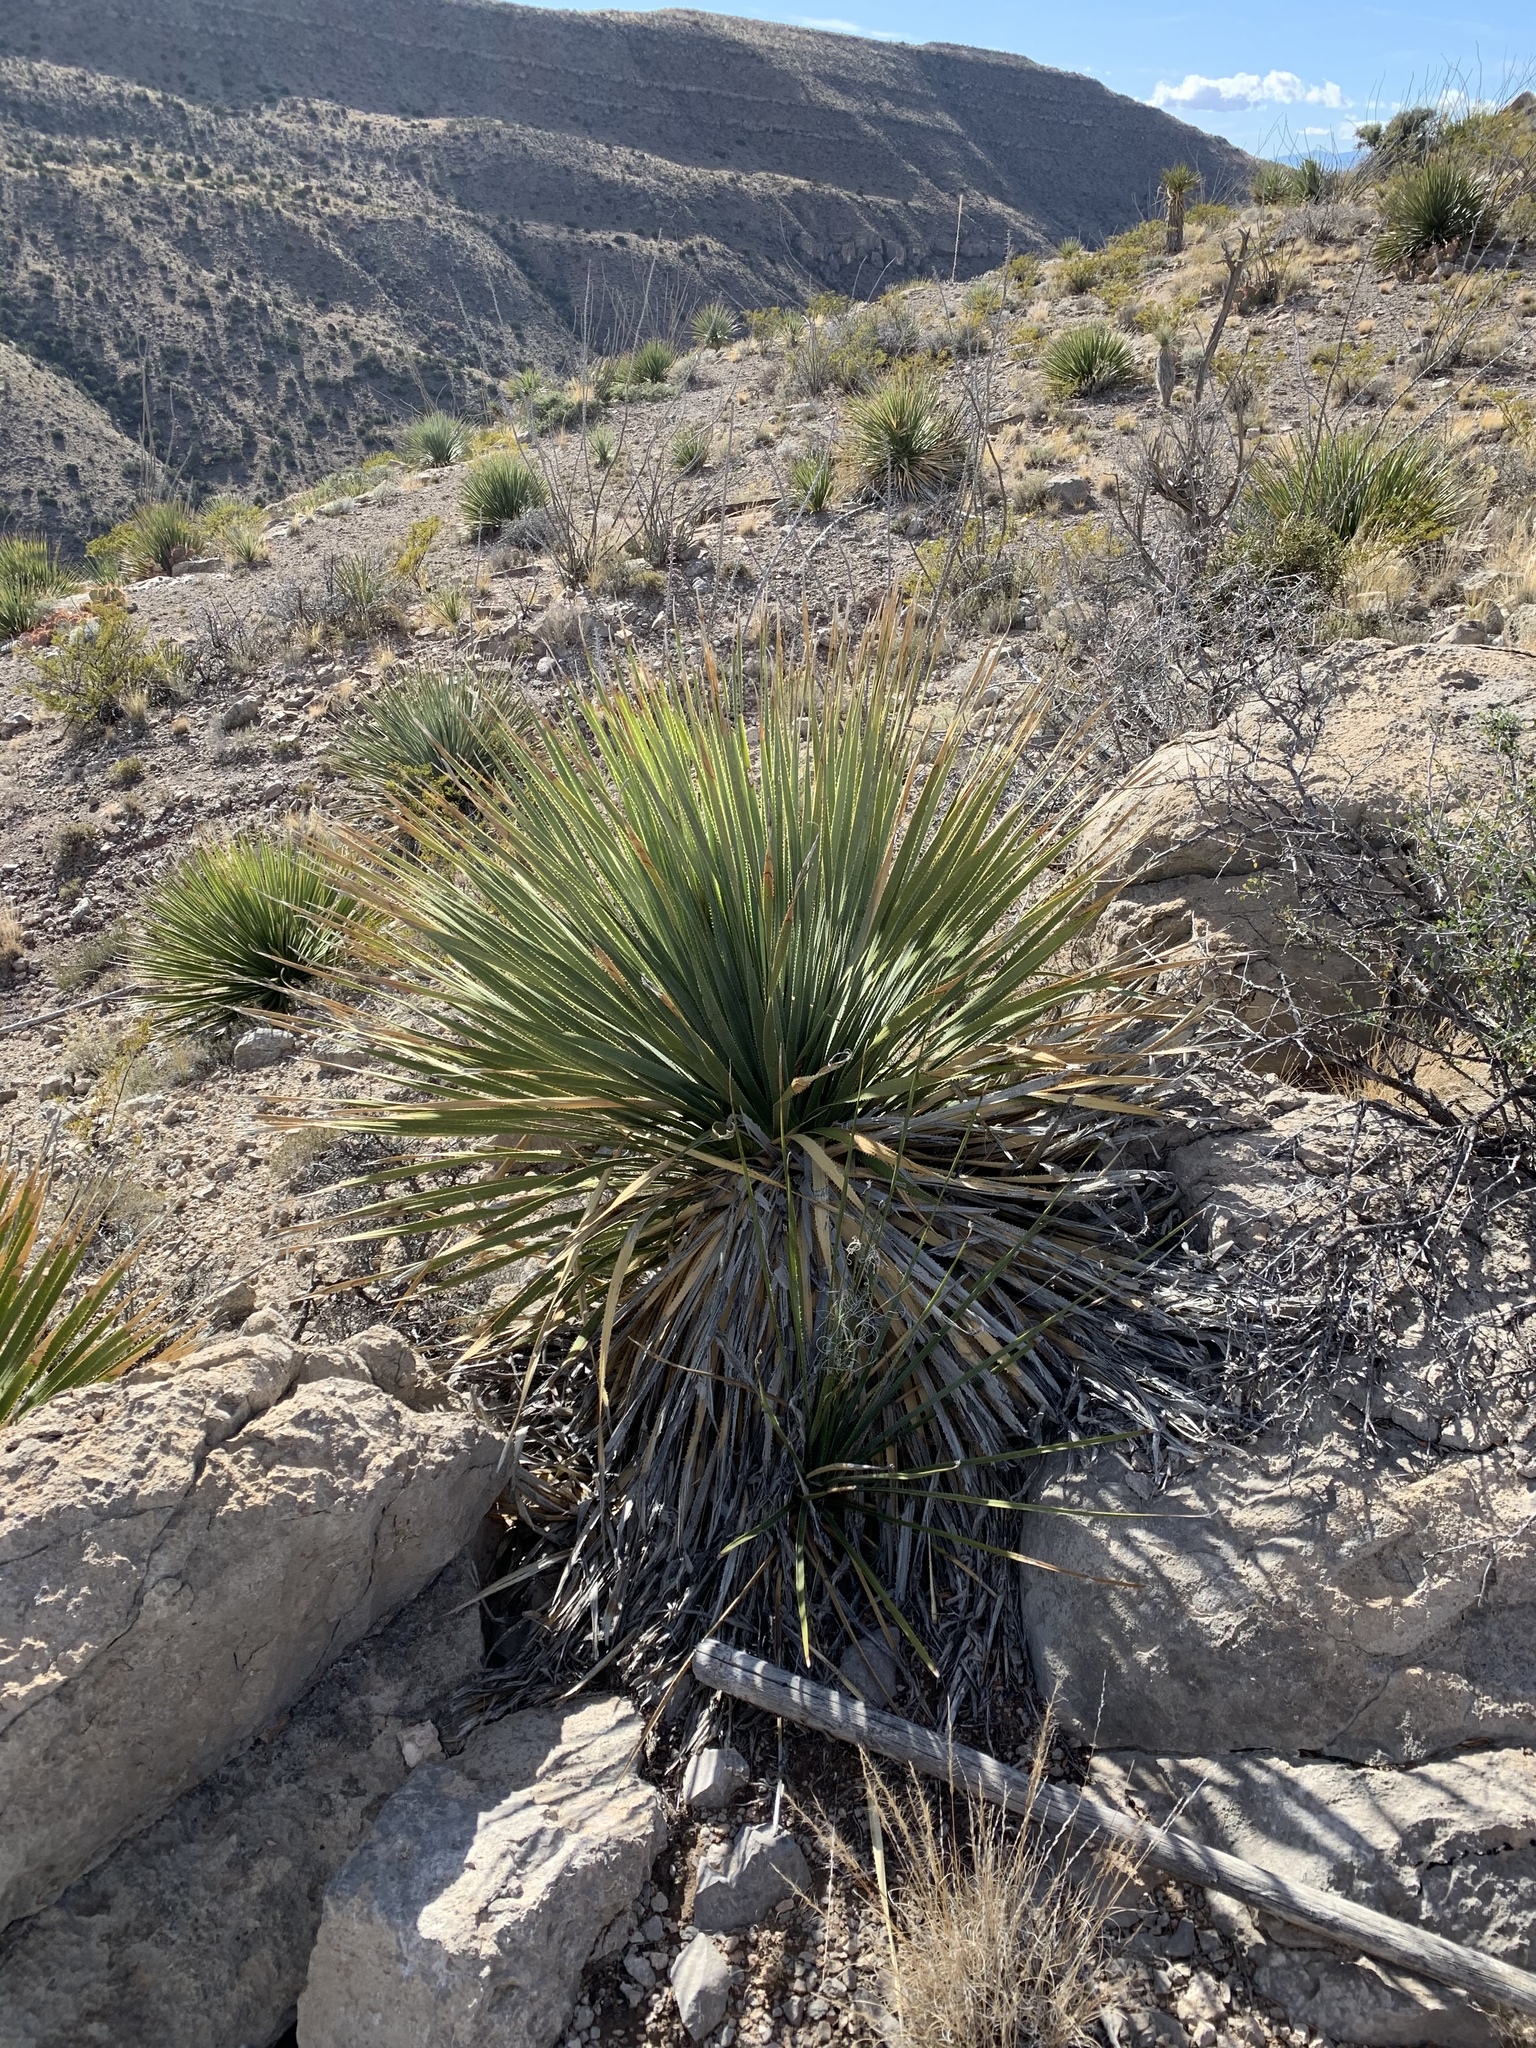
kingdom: Plantae
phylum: Tracheophyta
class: Liliopsida
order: Asparagales
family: Asparagaceae
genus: Dasylirion
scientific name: Dasylirion wheeleri
